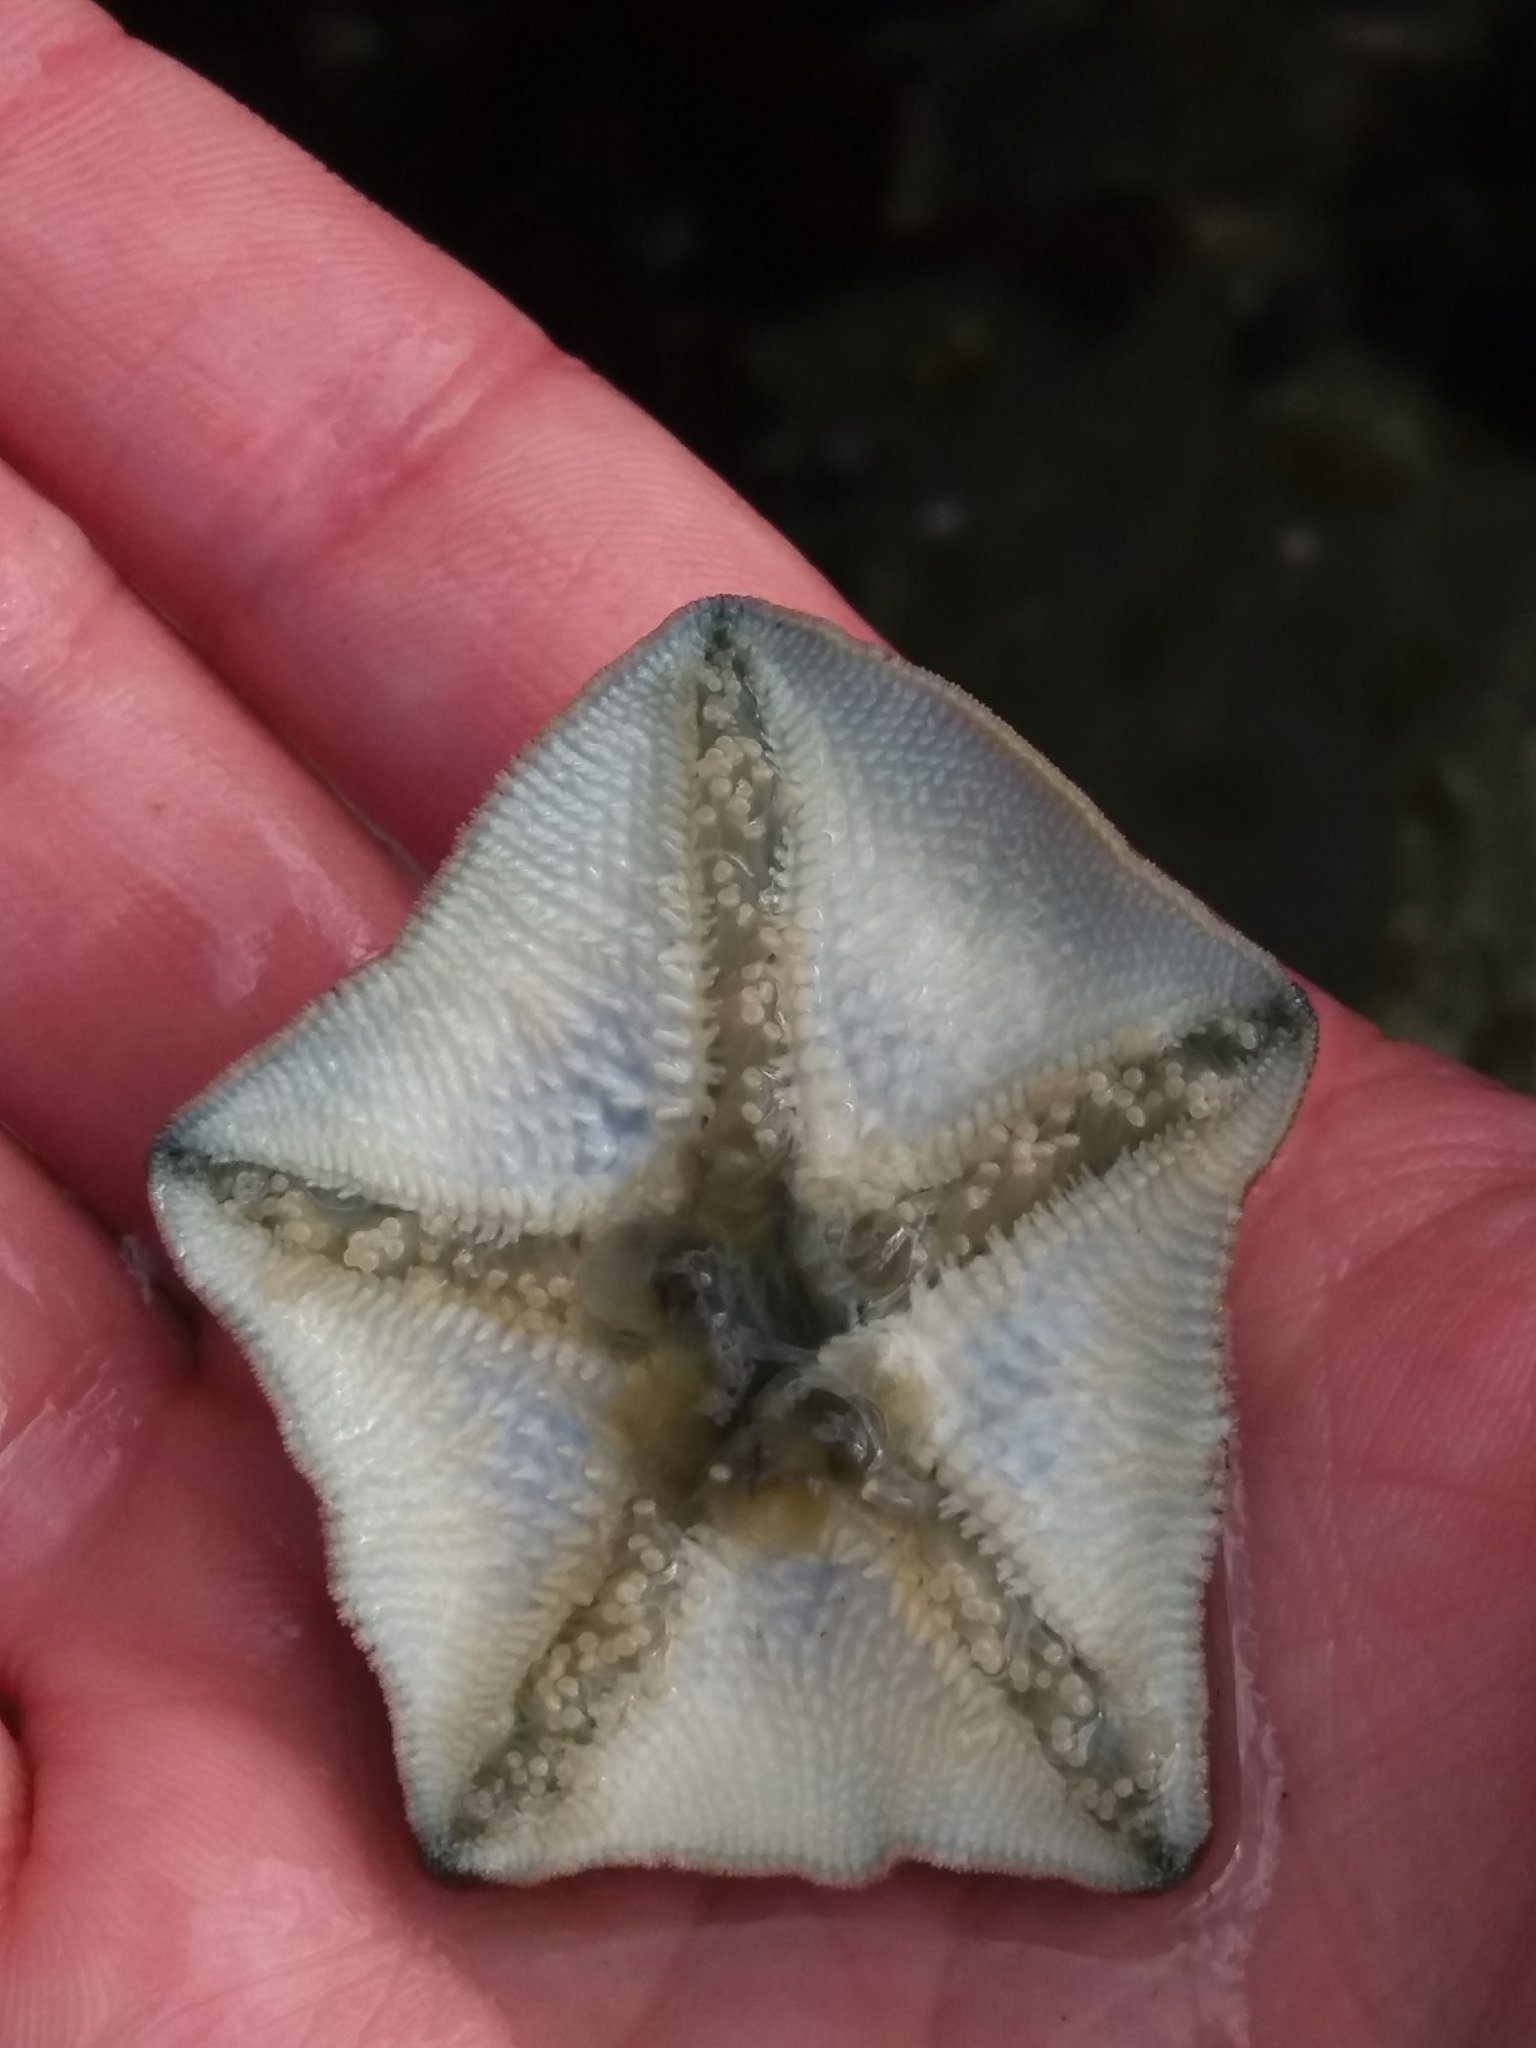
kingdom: Animalia
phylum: Echinodermata
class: Asteroidea
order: Valvatida
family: Asterinidae
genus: Patiriella
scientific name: Patiriella regularis
